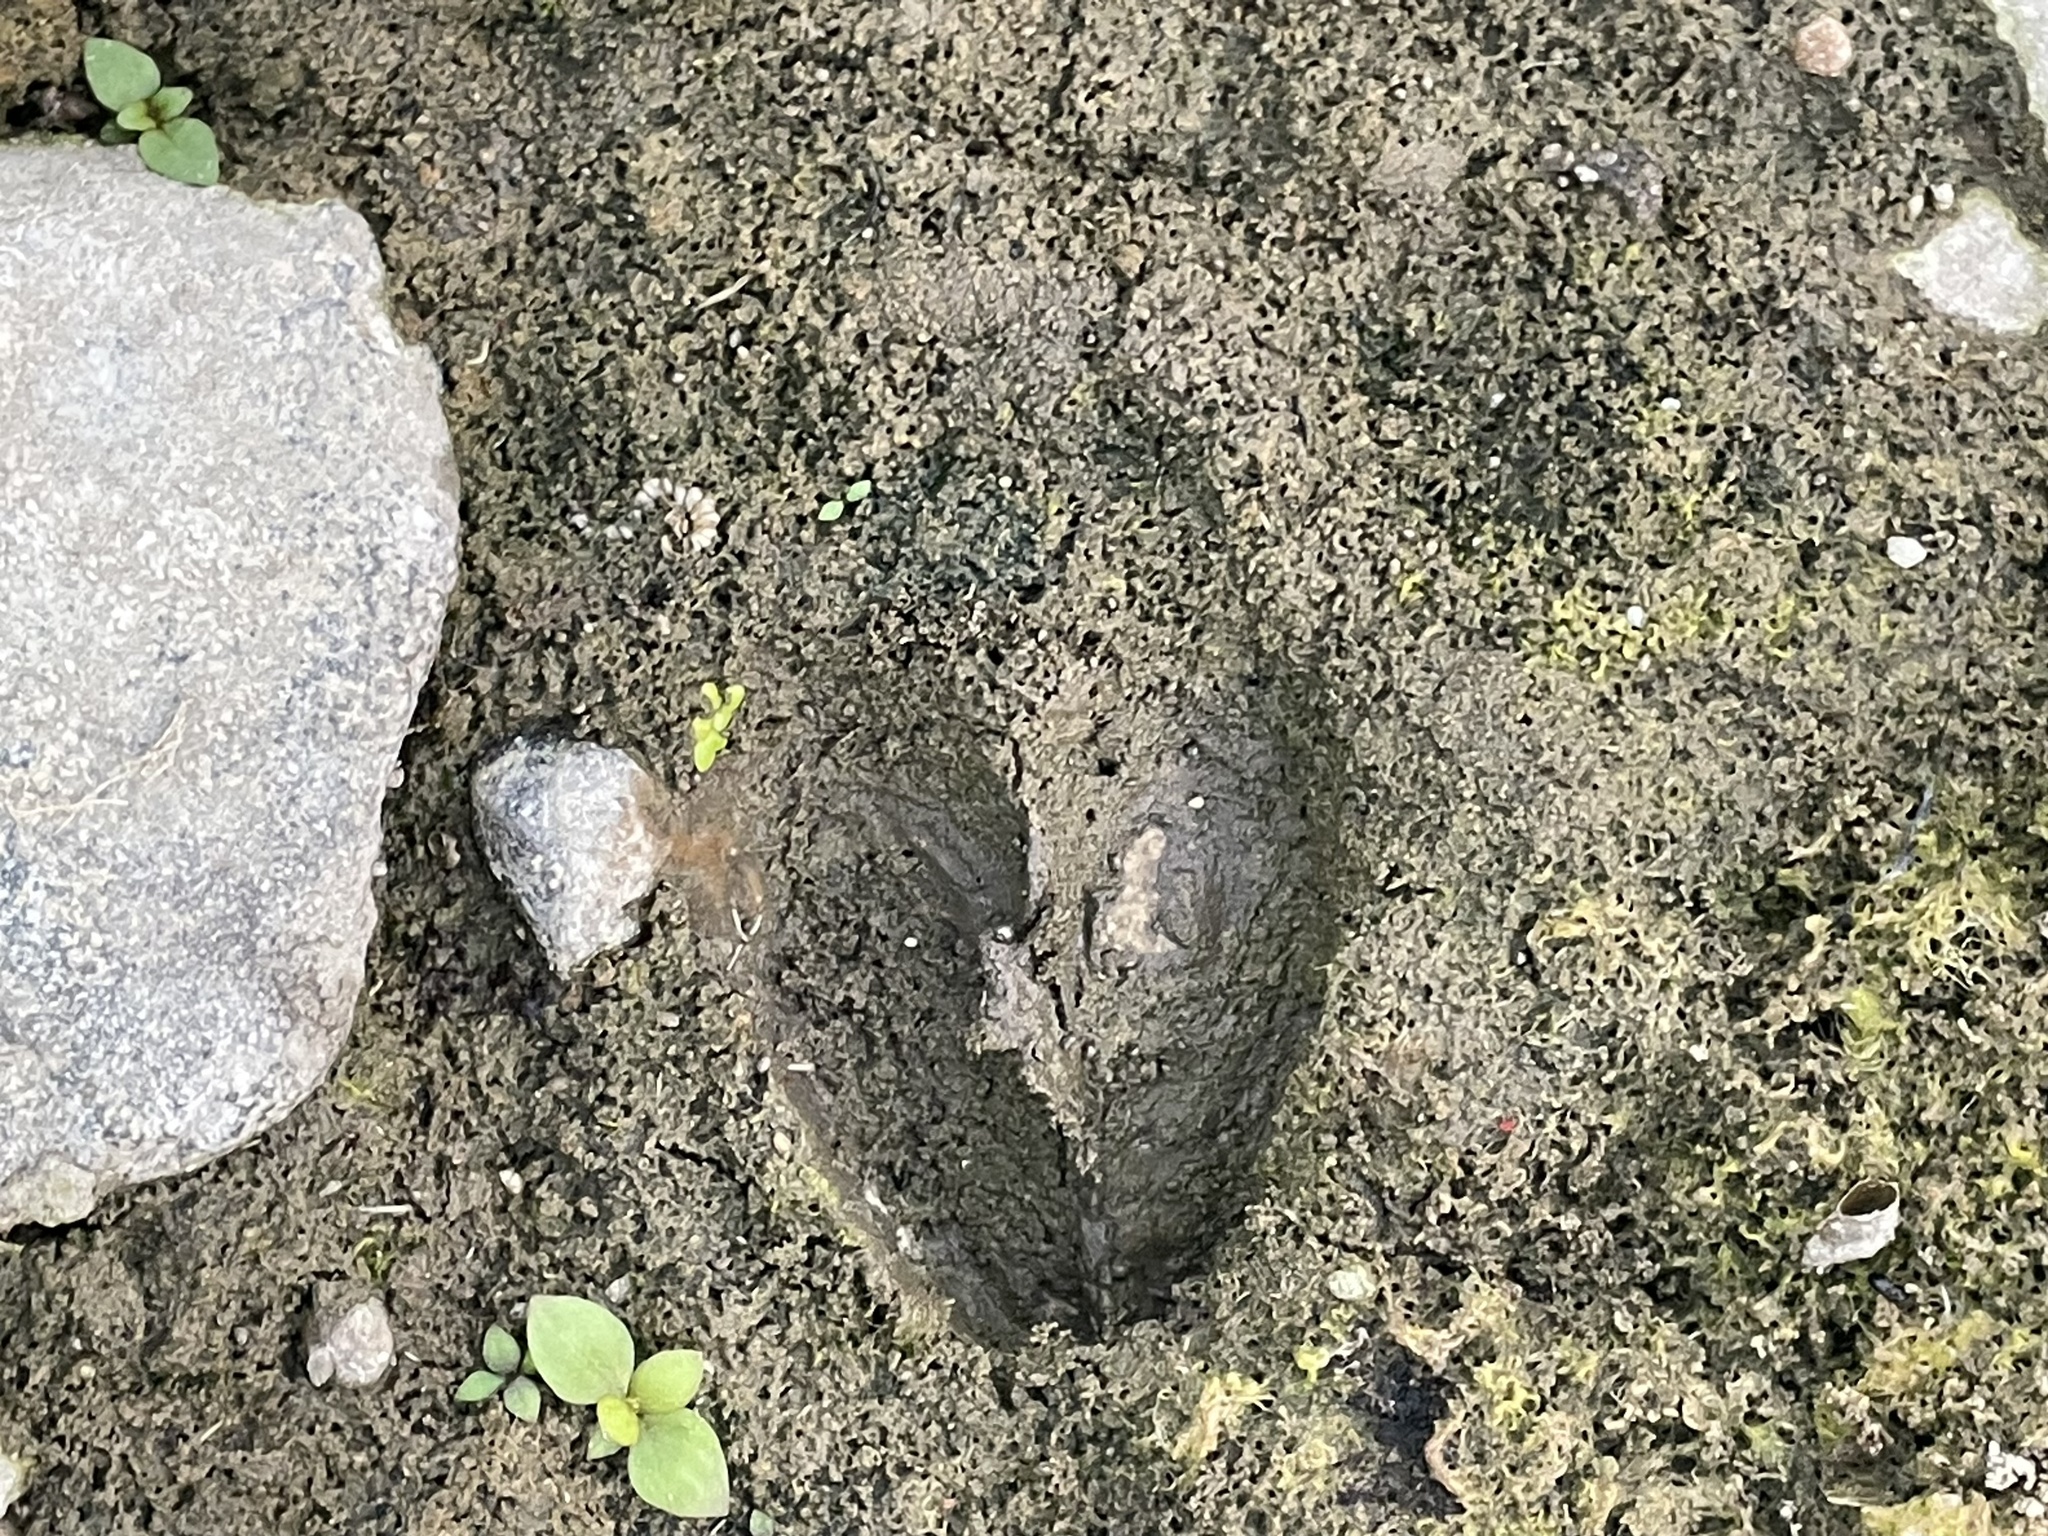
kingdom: Animalia
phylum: Chordata
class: Mammalia
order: Artiodactyla
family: Cervidae
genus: Odocoileus
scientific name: Odocoileus virginianus
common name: White-tailed deer
